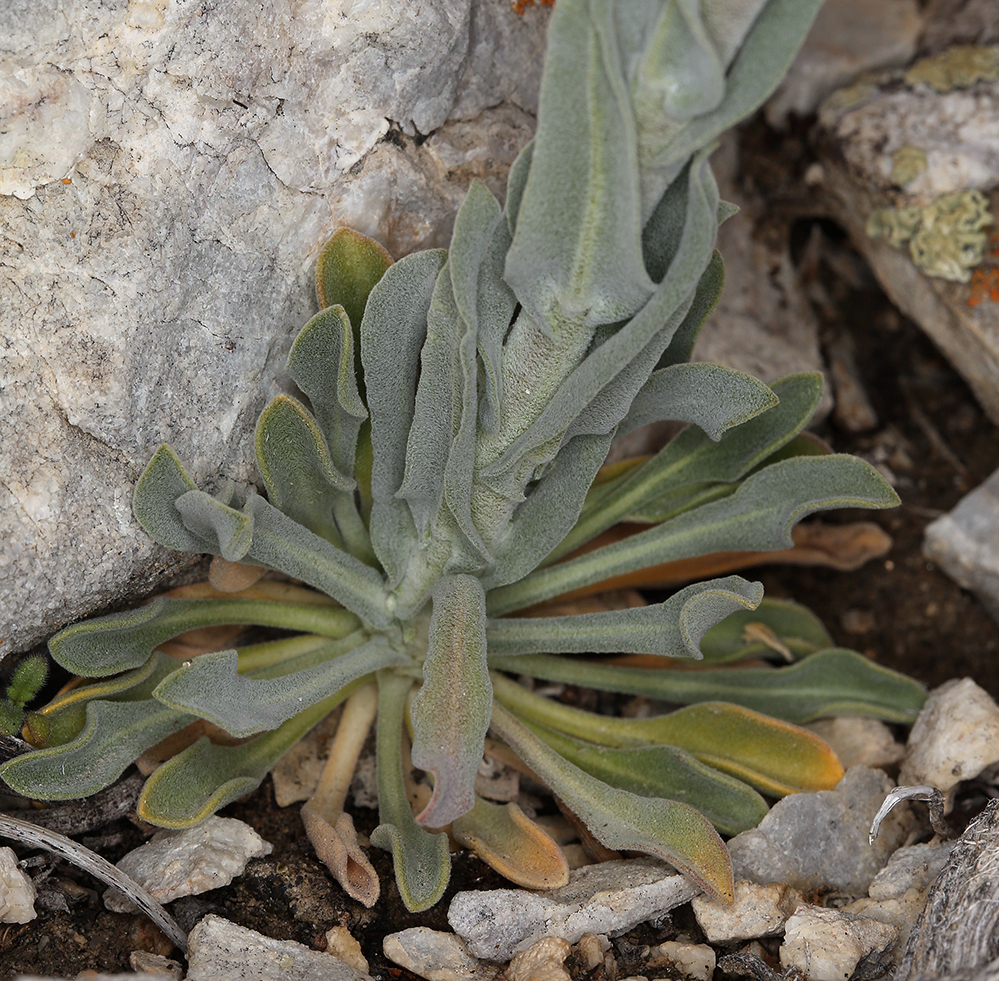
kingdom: Plantae
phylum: Tracheophyta
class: Magnoliopsida
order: Brassicales
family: Brassicaceae
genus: Boechera
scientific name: Boechera shockleyi
